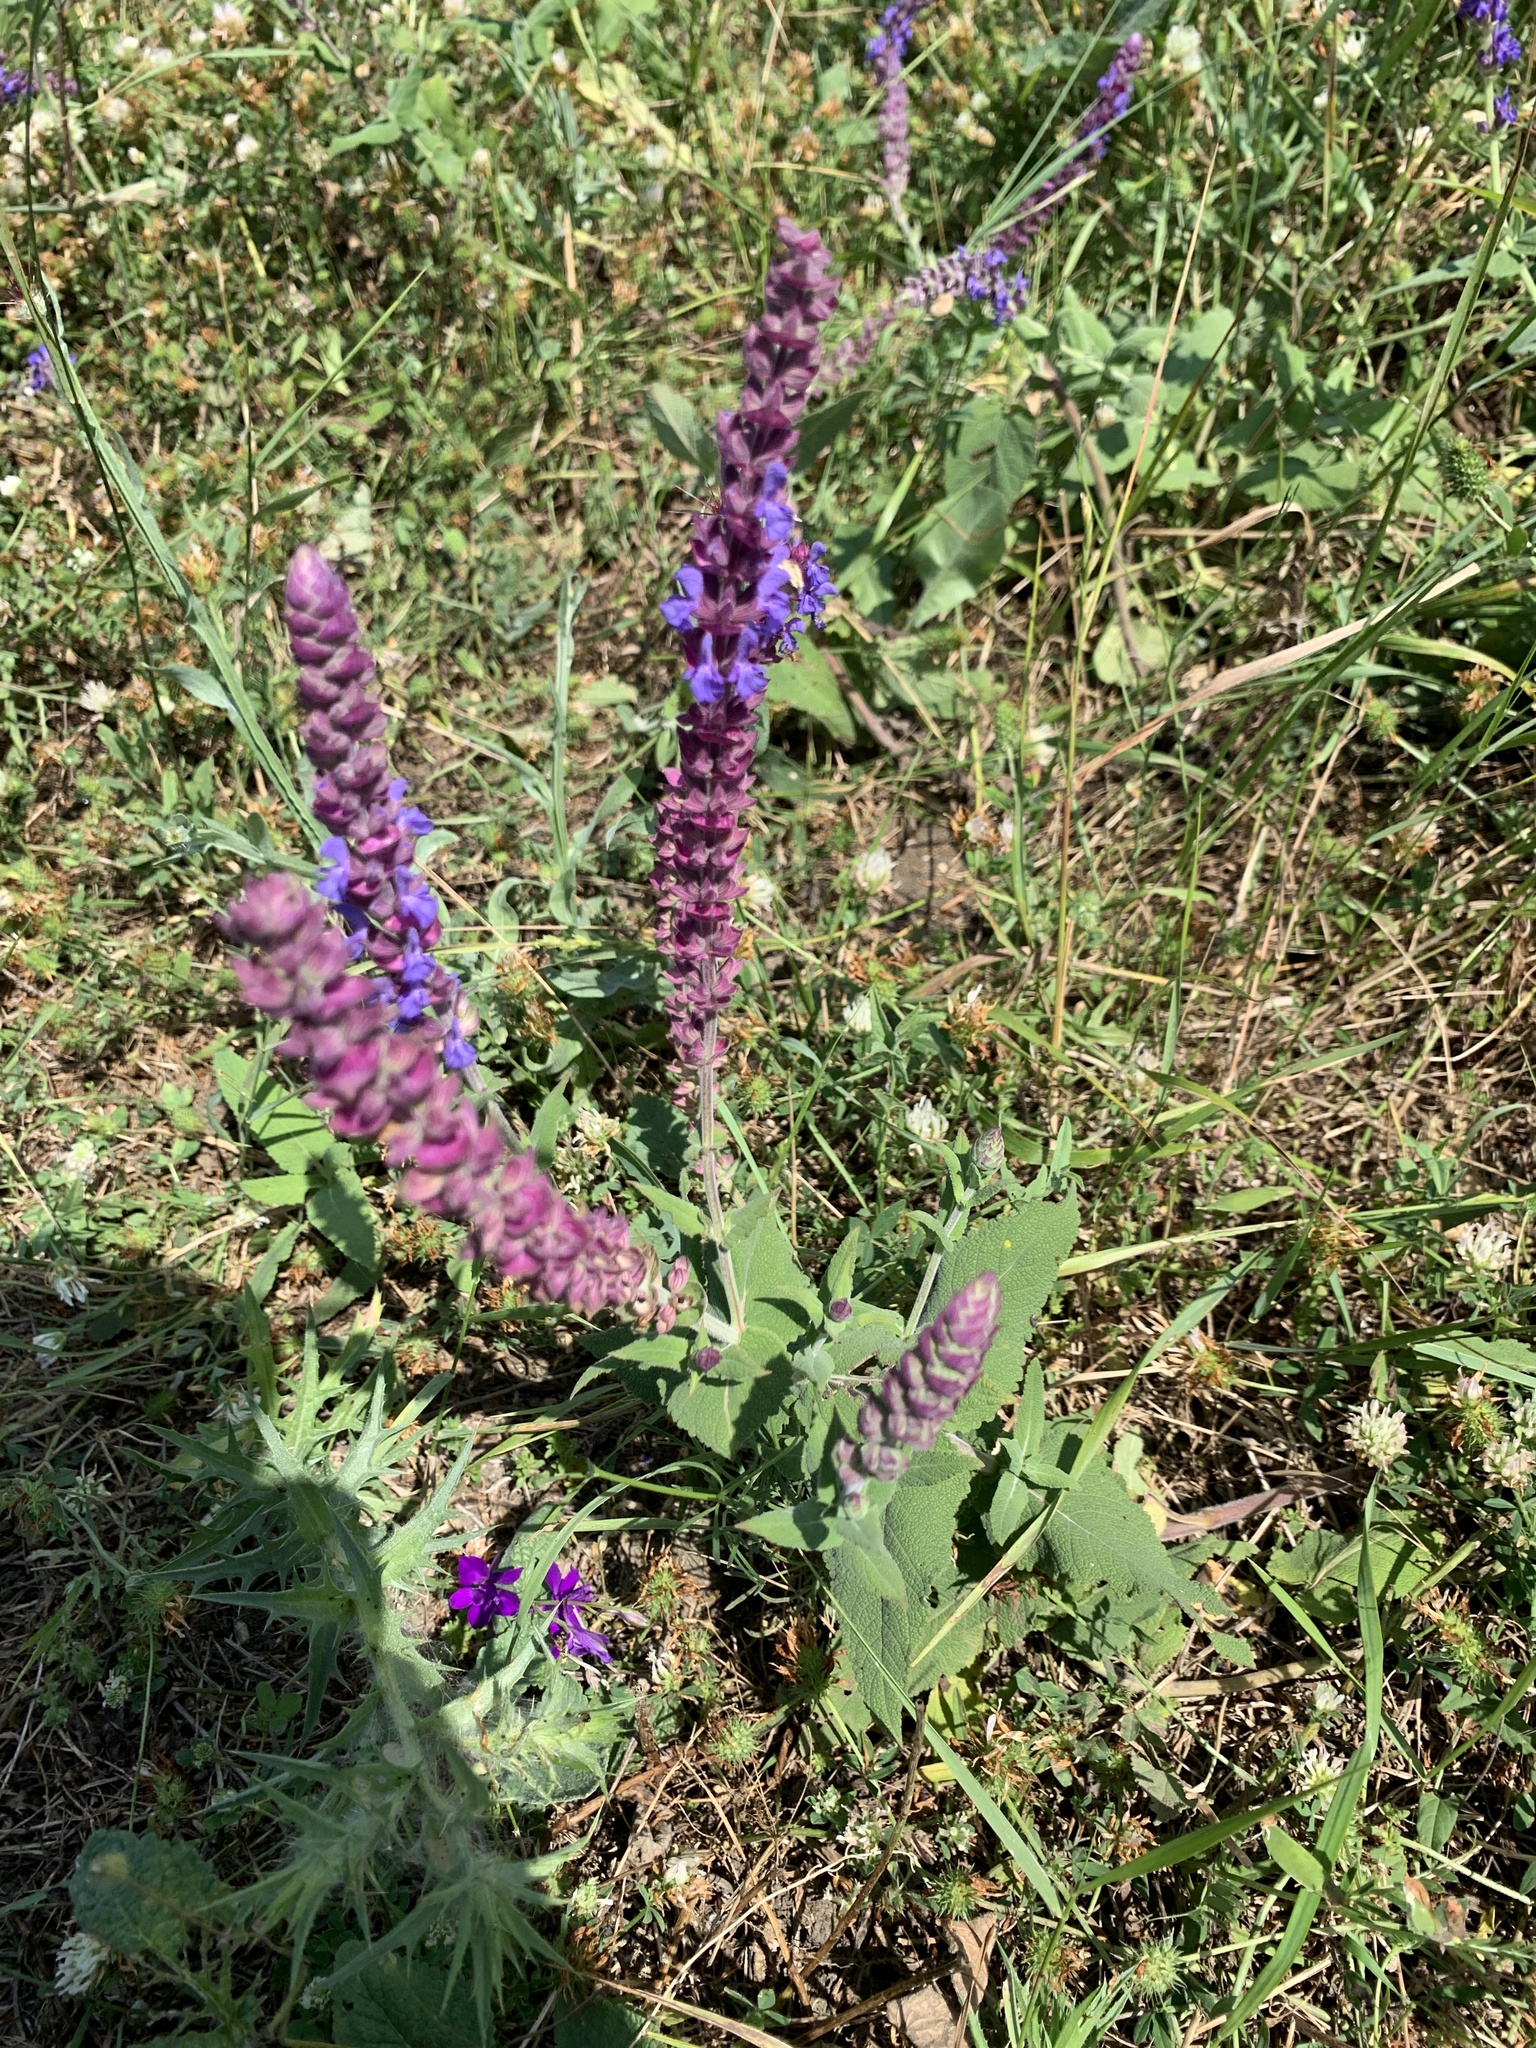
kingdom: Plantae
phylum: Tracheophyta
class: Magnoliopsida
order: Lamiales
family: Lamiaceae
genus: Salvia
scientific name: Salvia nemorosa
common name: Balkan clary
